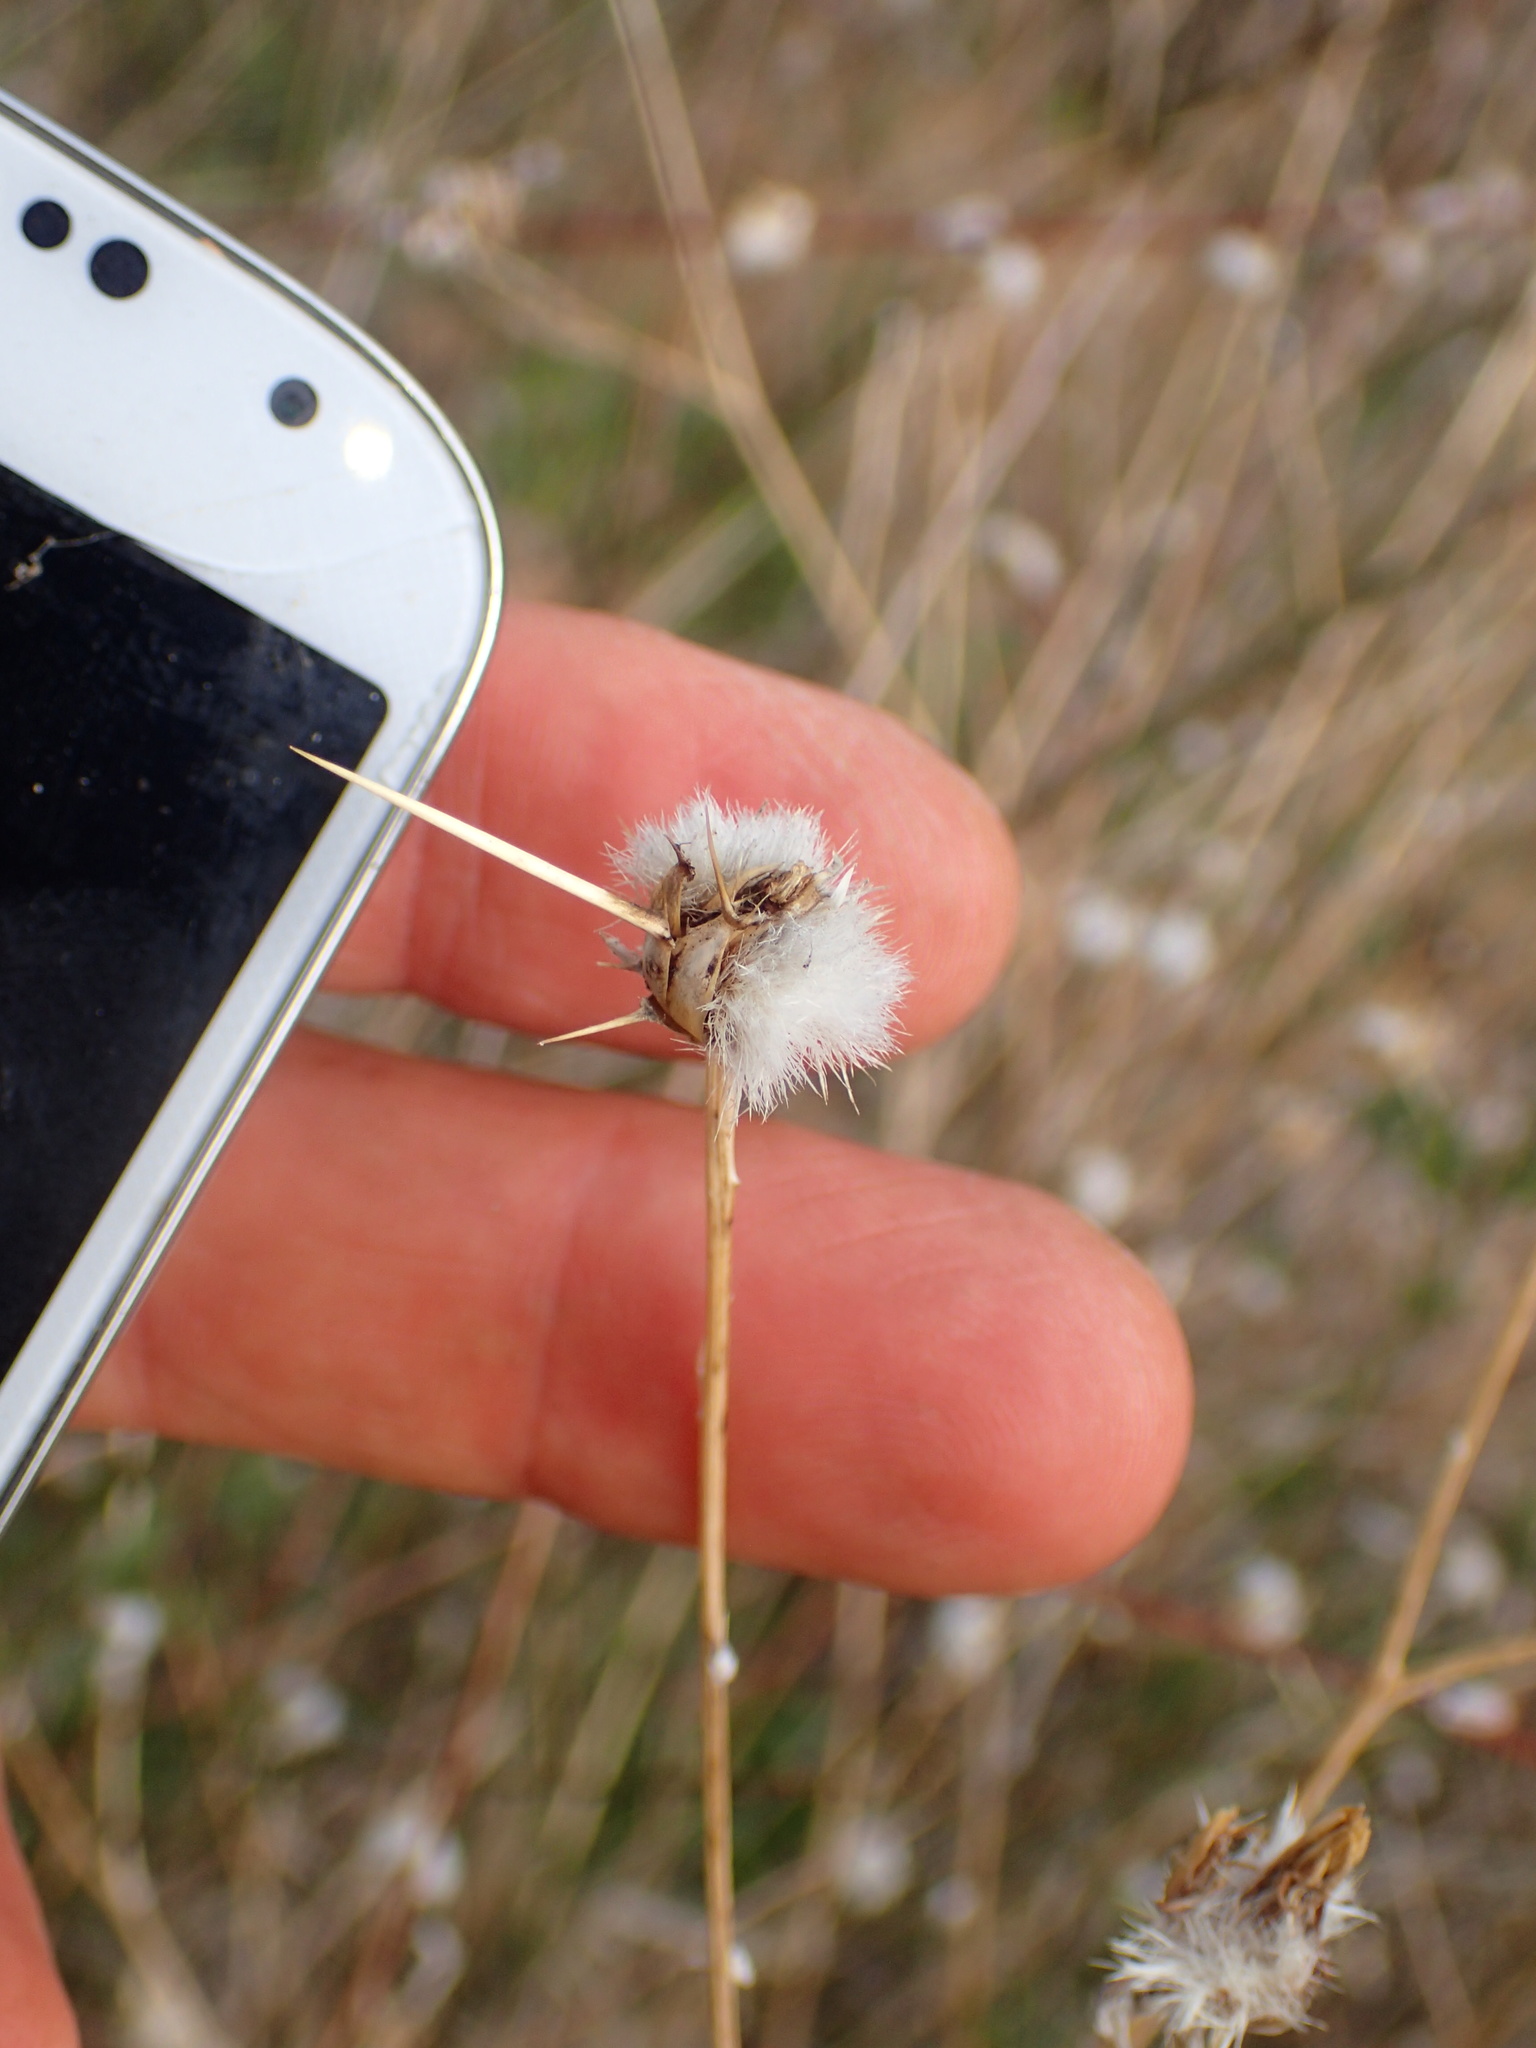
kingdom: Plantae
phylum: Tracheophyta
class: Magnoliopsida
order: Asterales
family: Asteraceae
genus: Centaurea
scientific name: Centaurea solstitialis
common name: Yellow star-thistle
